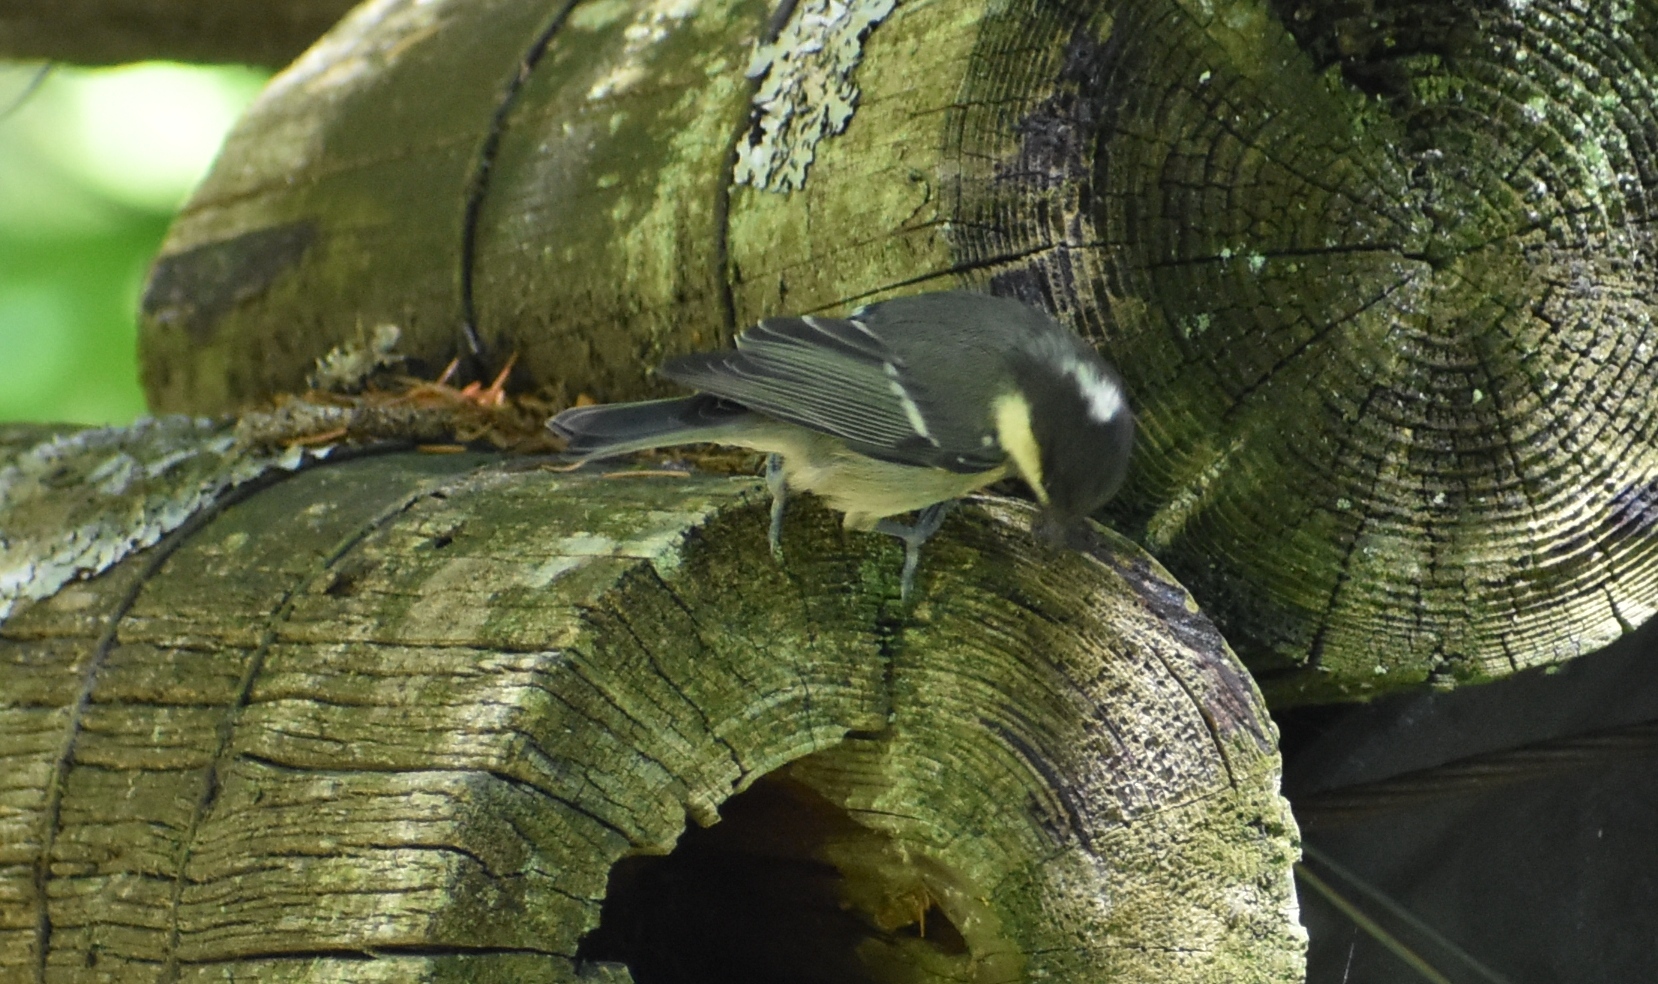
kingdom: Animalia
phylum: Chordata
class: Aves
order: Passeriformes
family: Paridae
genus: Periparus
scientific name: Periparus ater
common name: Coal tit
